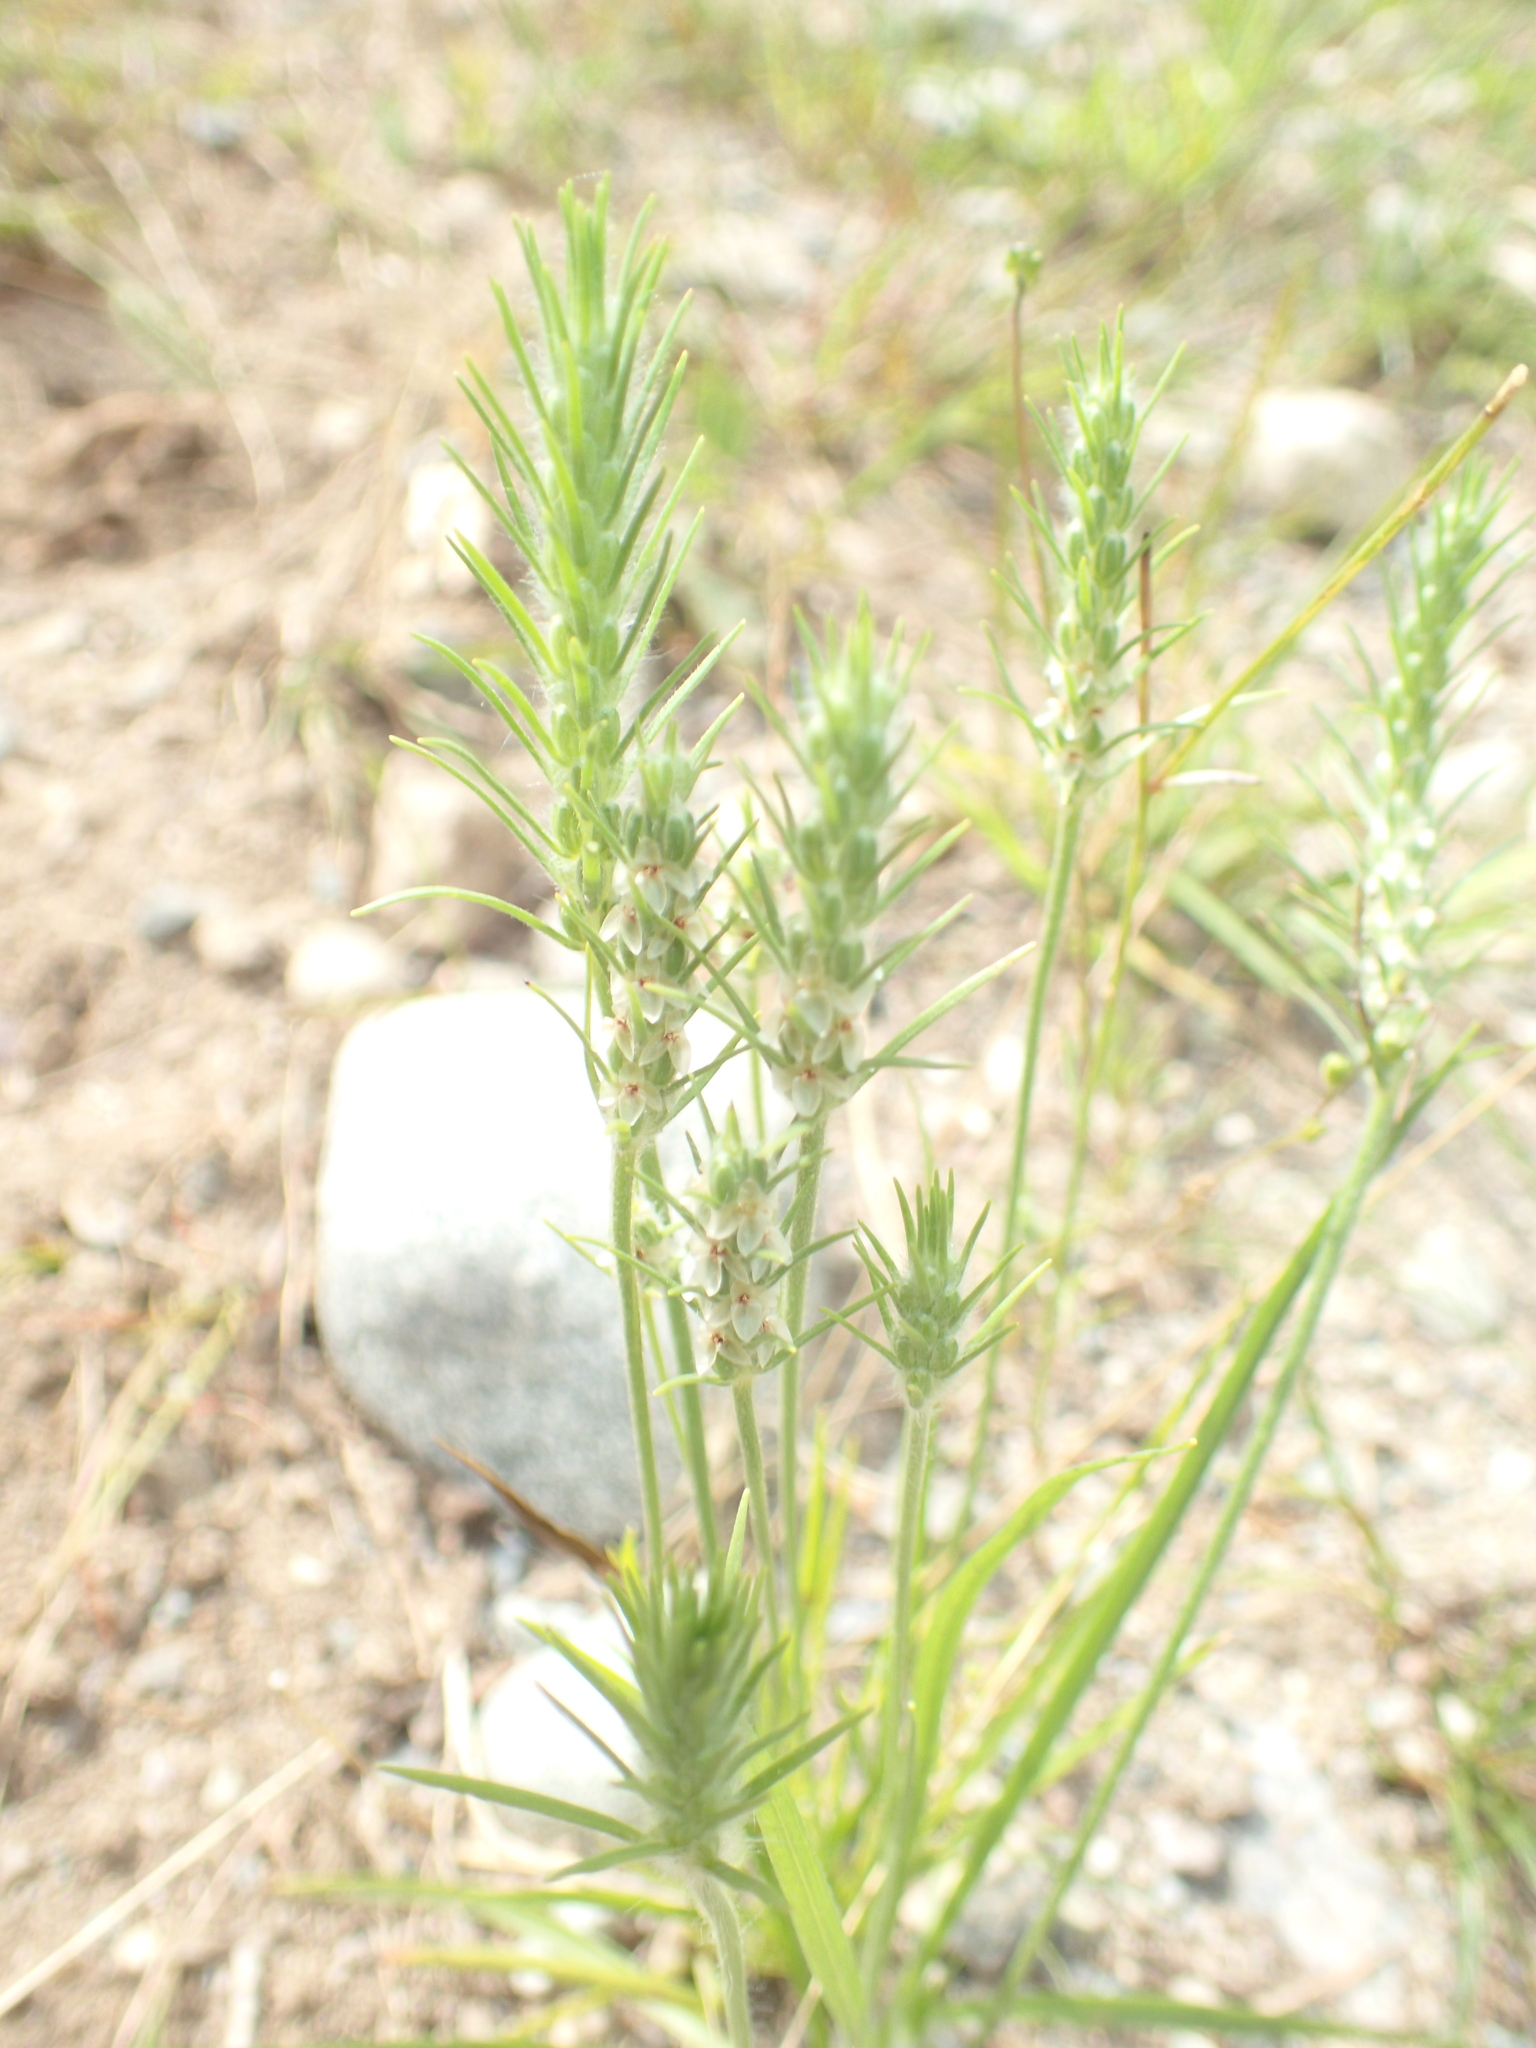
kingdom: Plantae
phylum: Tracheophyta
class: Magnoliopsida
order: Lamiales
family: Plantaginaceae
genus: Plantago
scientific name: Plantago aristata
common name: Bracted plantain
